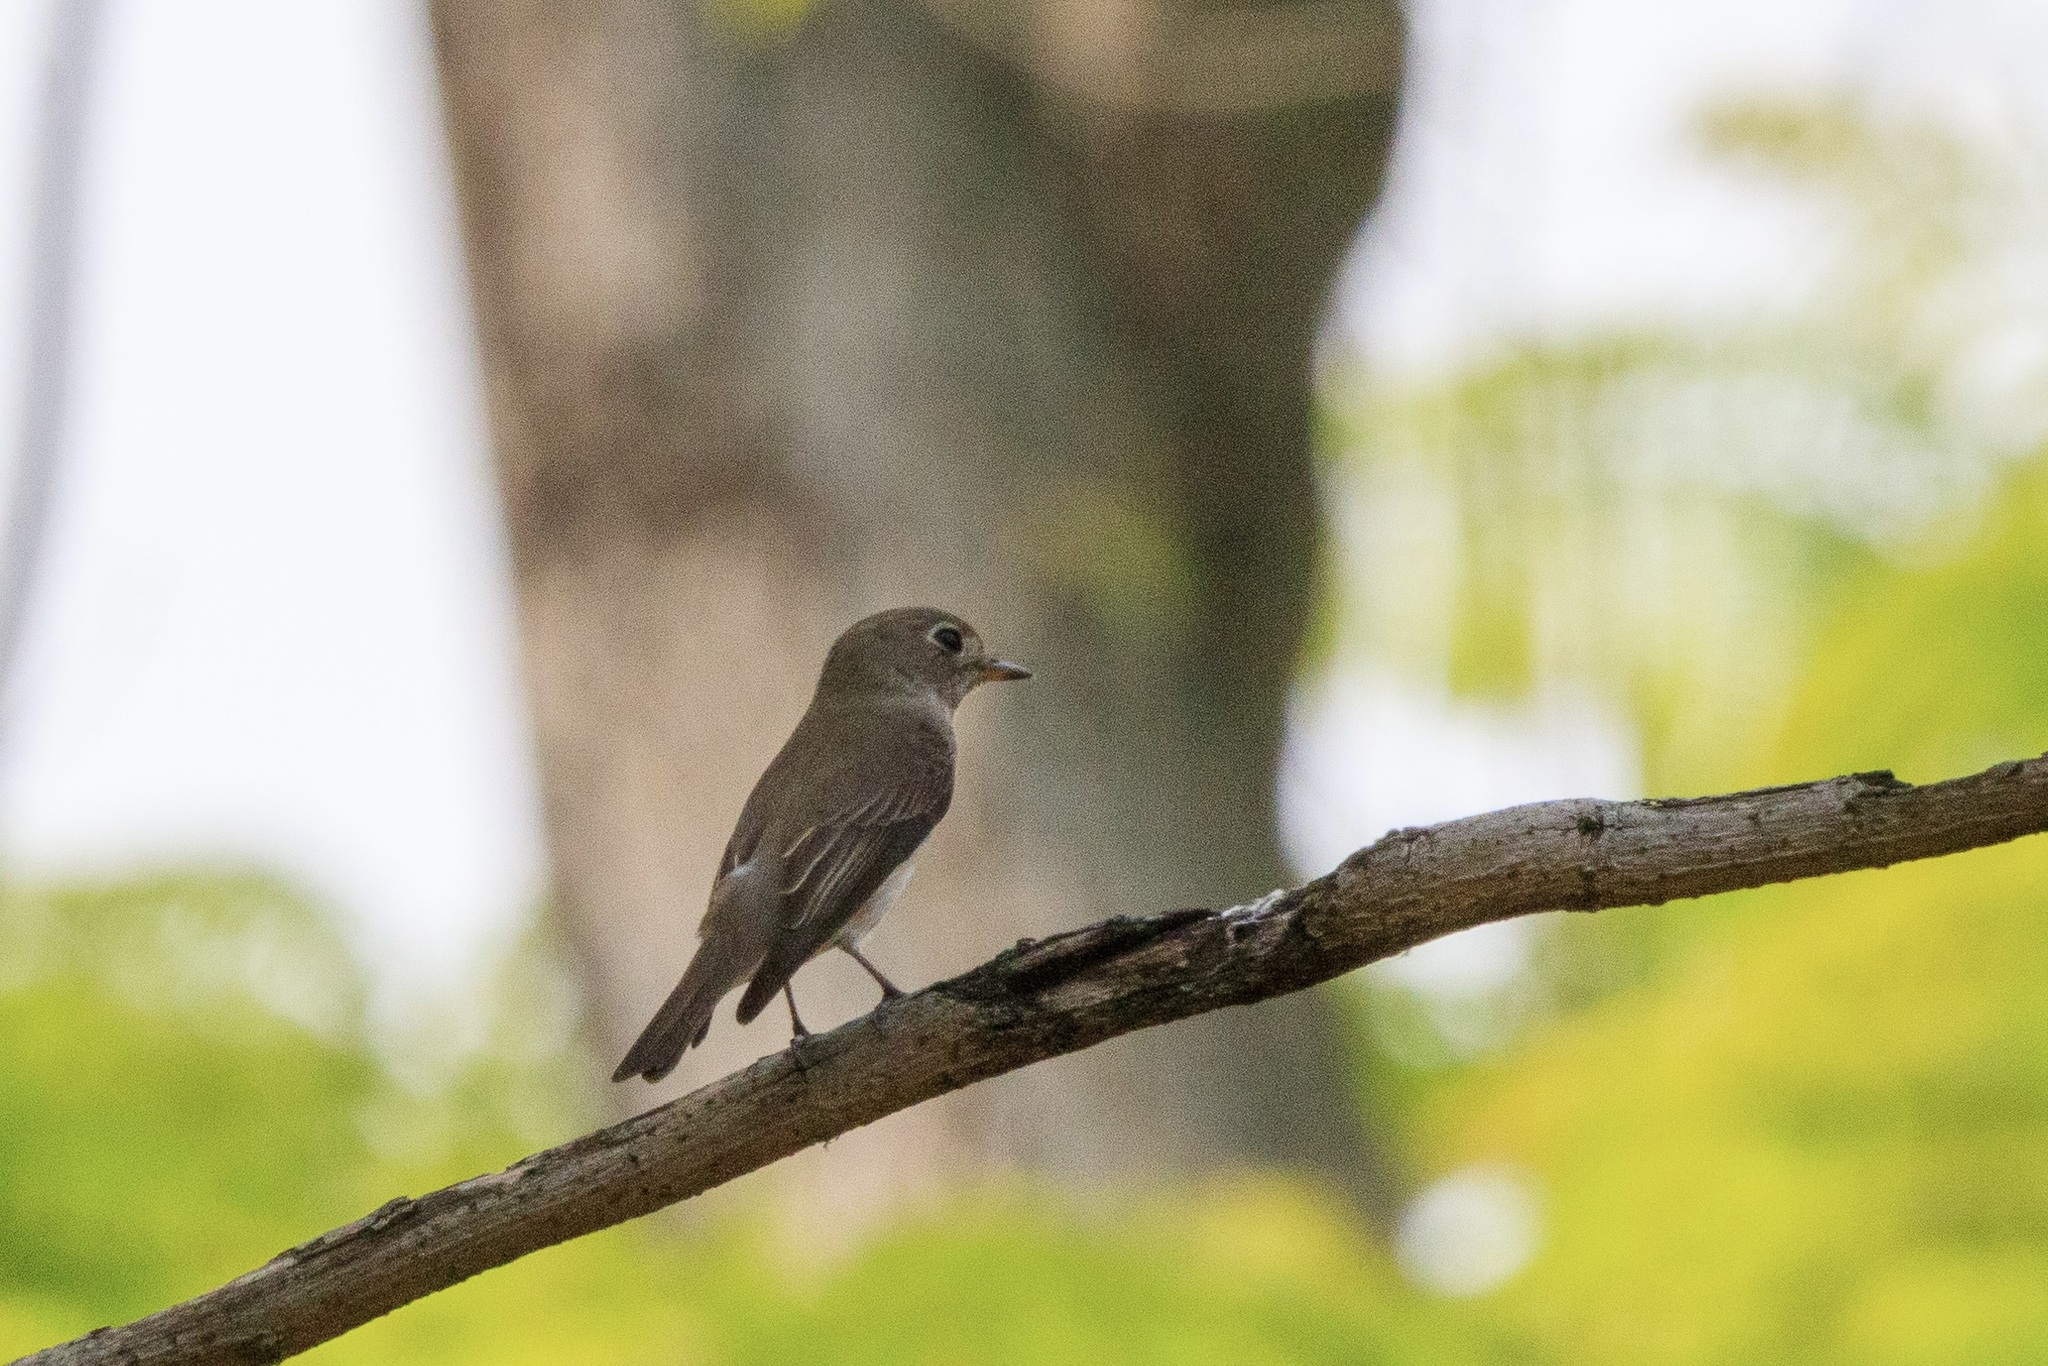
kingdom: Animalia
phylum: Chordata
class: Aves
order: Passeriformes
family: Muscicapidae
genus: Muscicapa
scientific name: Muscicapa latirostris
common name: Asian brown flycatcher
